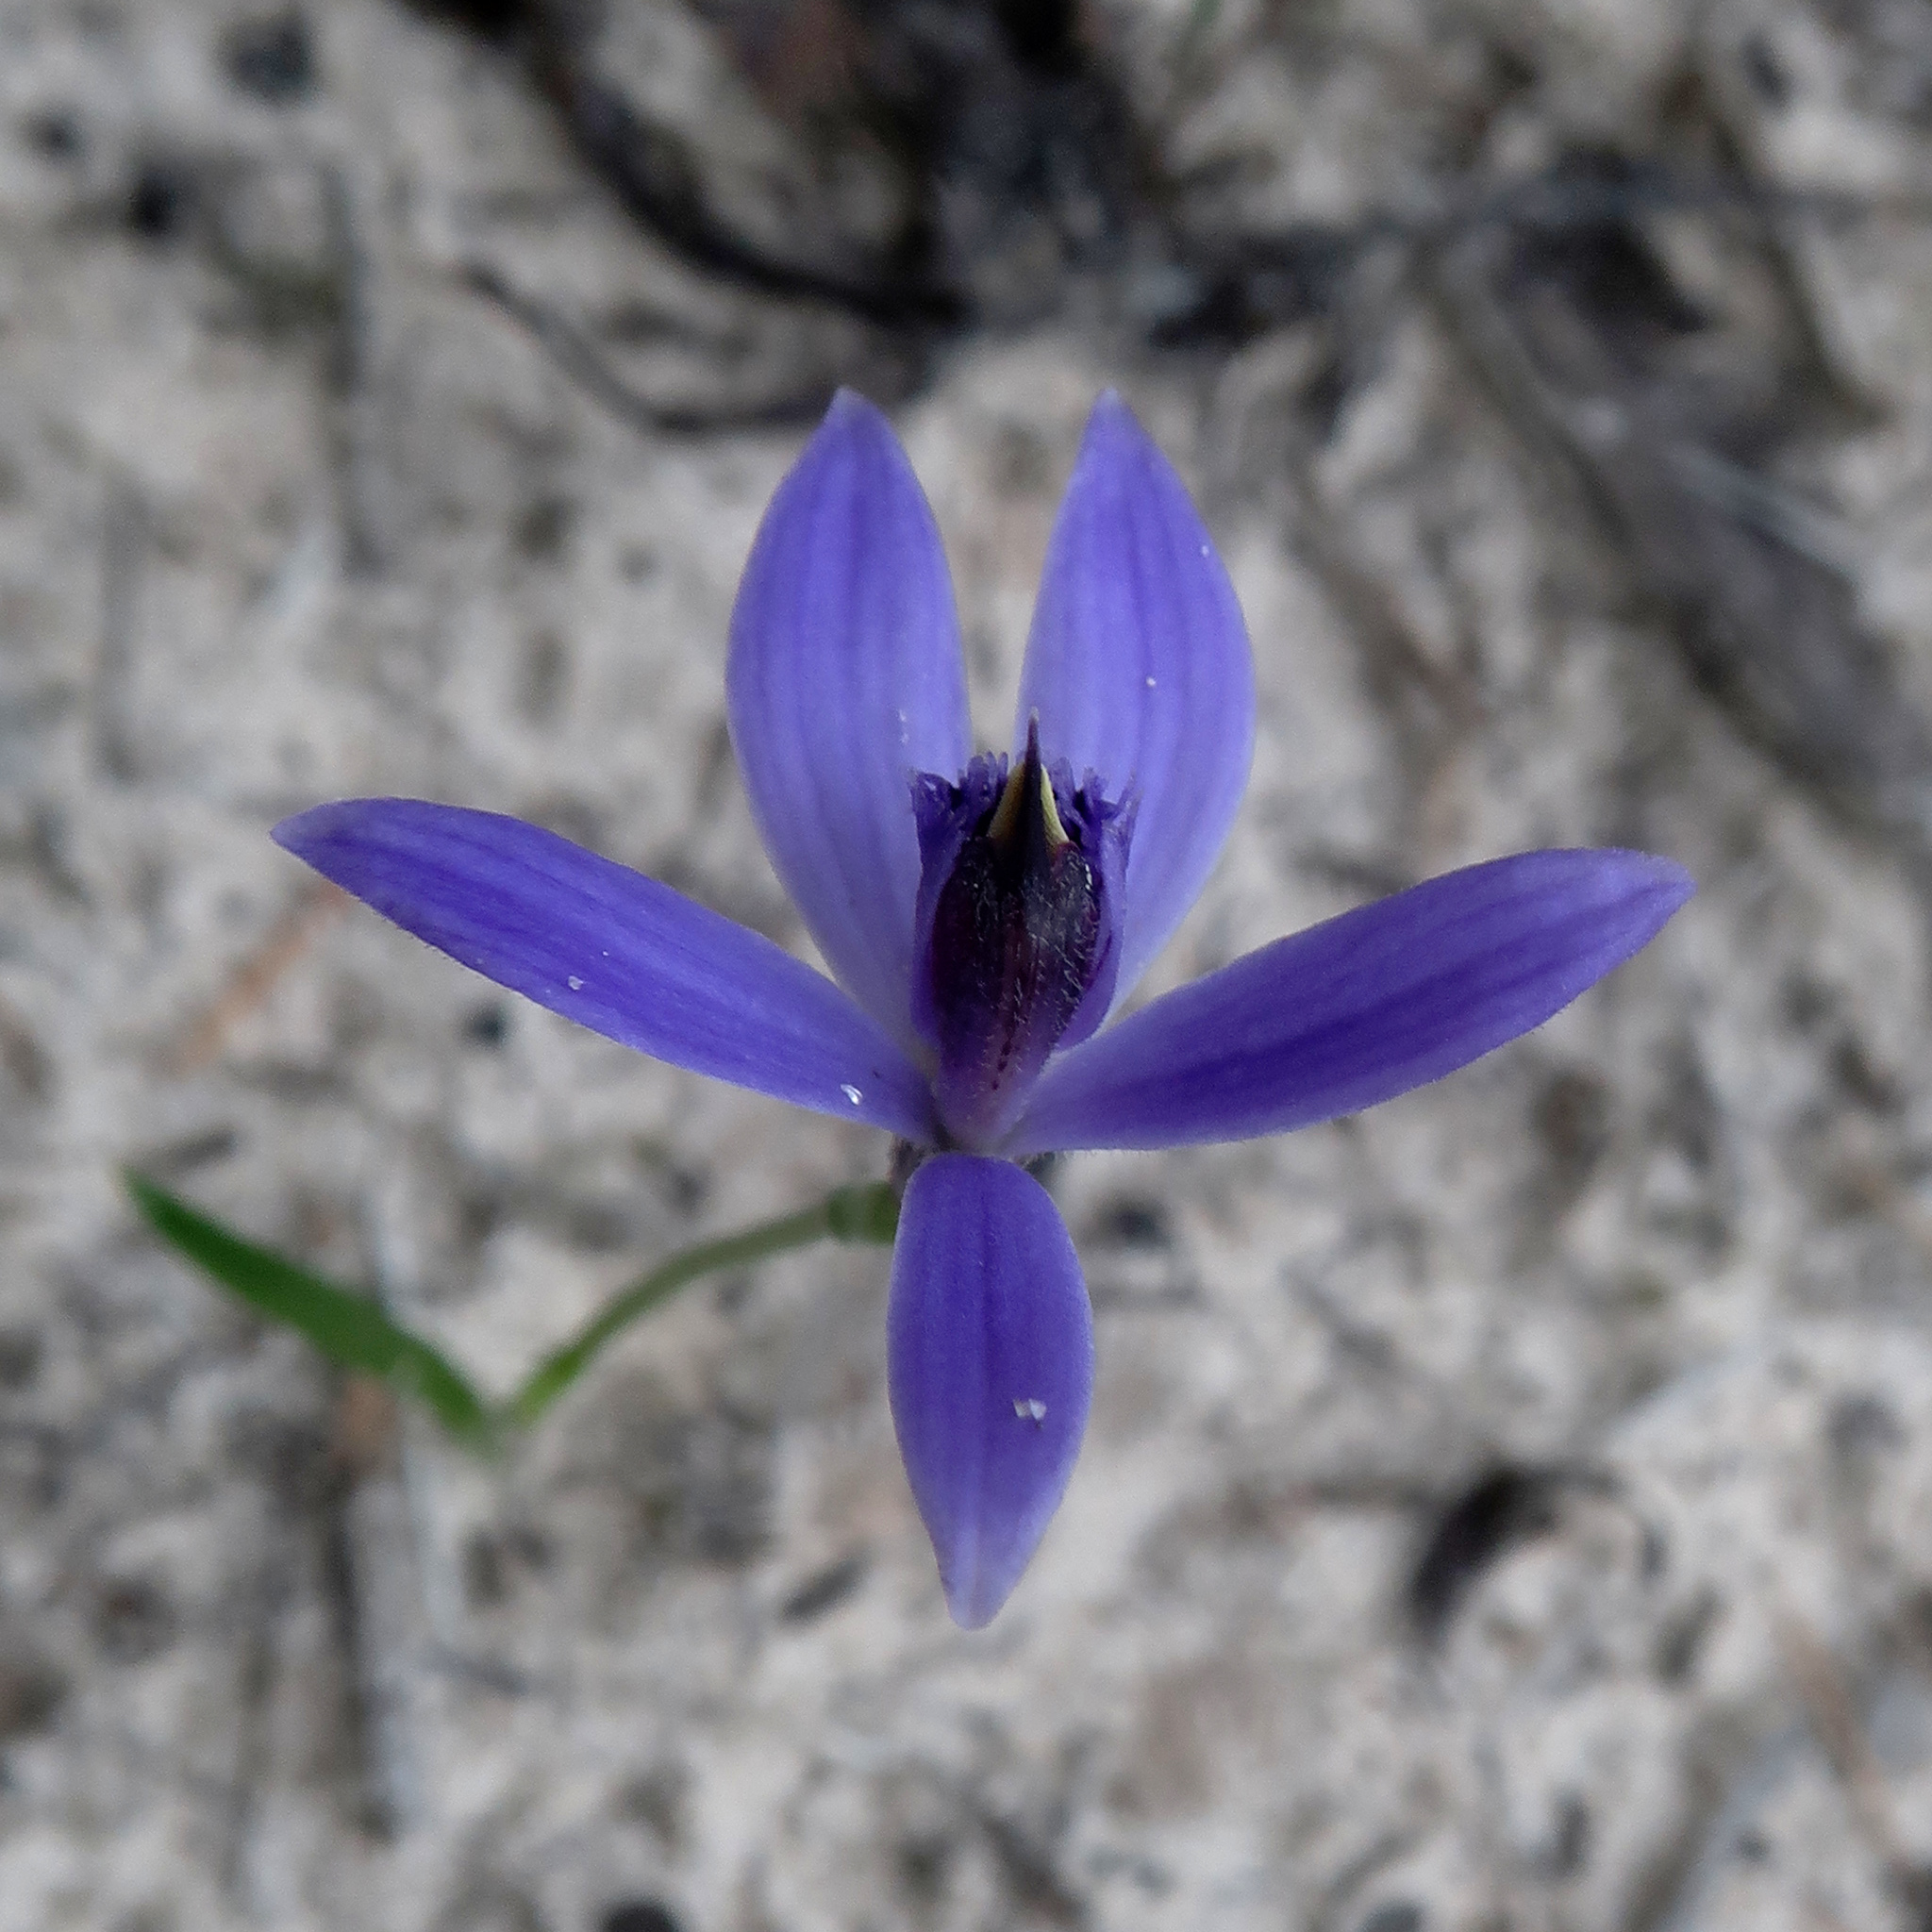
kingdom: Plantae
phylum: Tracheophyta
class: Liliopsida
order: Asparagales
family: Orchidaceae
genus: Pheladenia
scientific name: Pheladenia deformis
